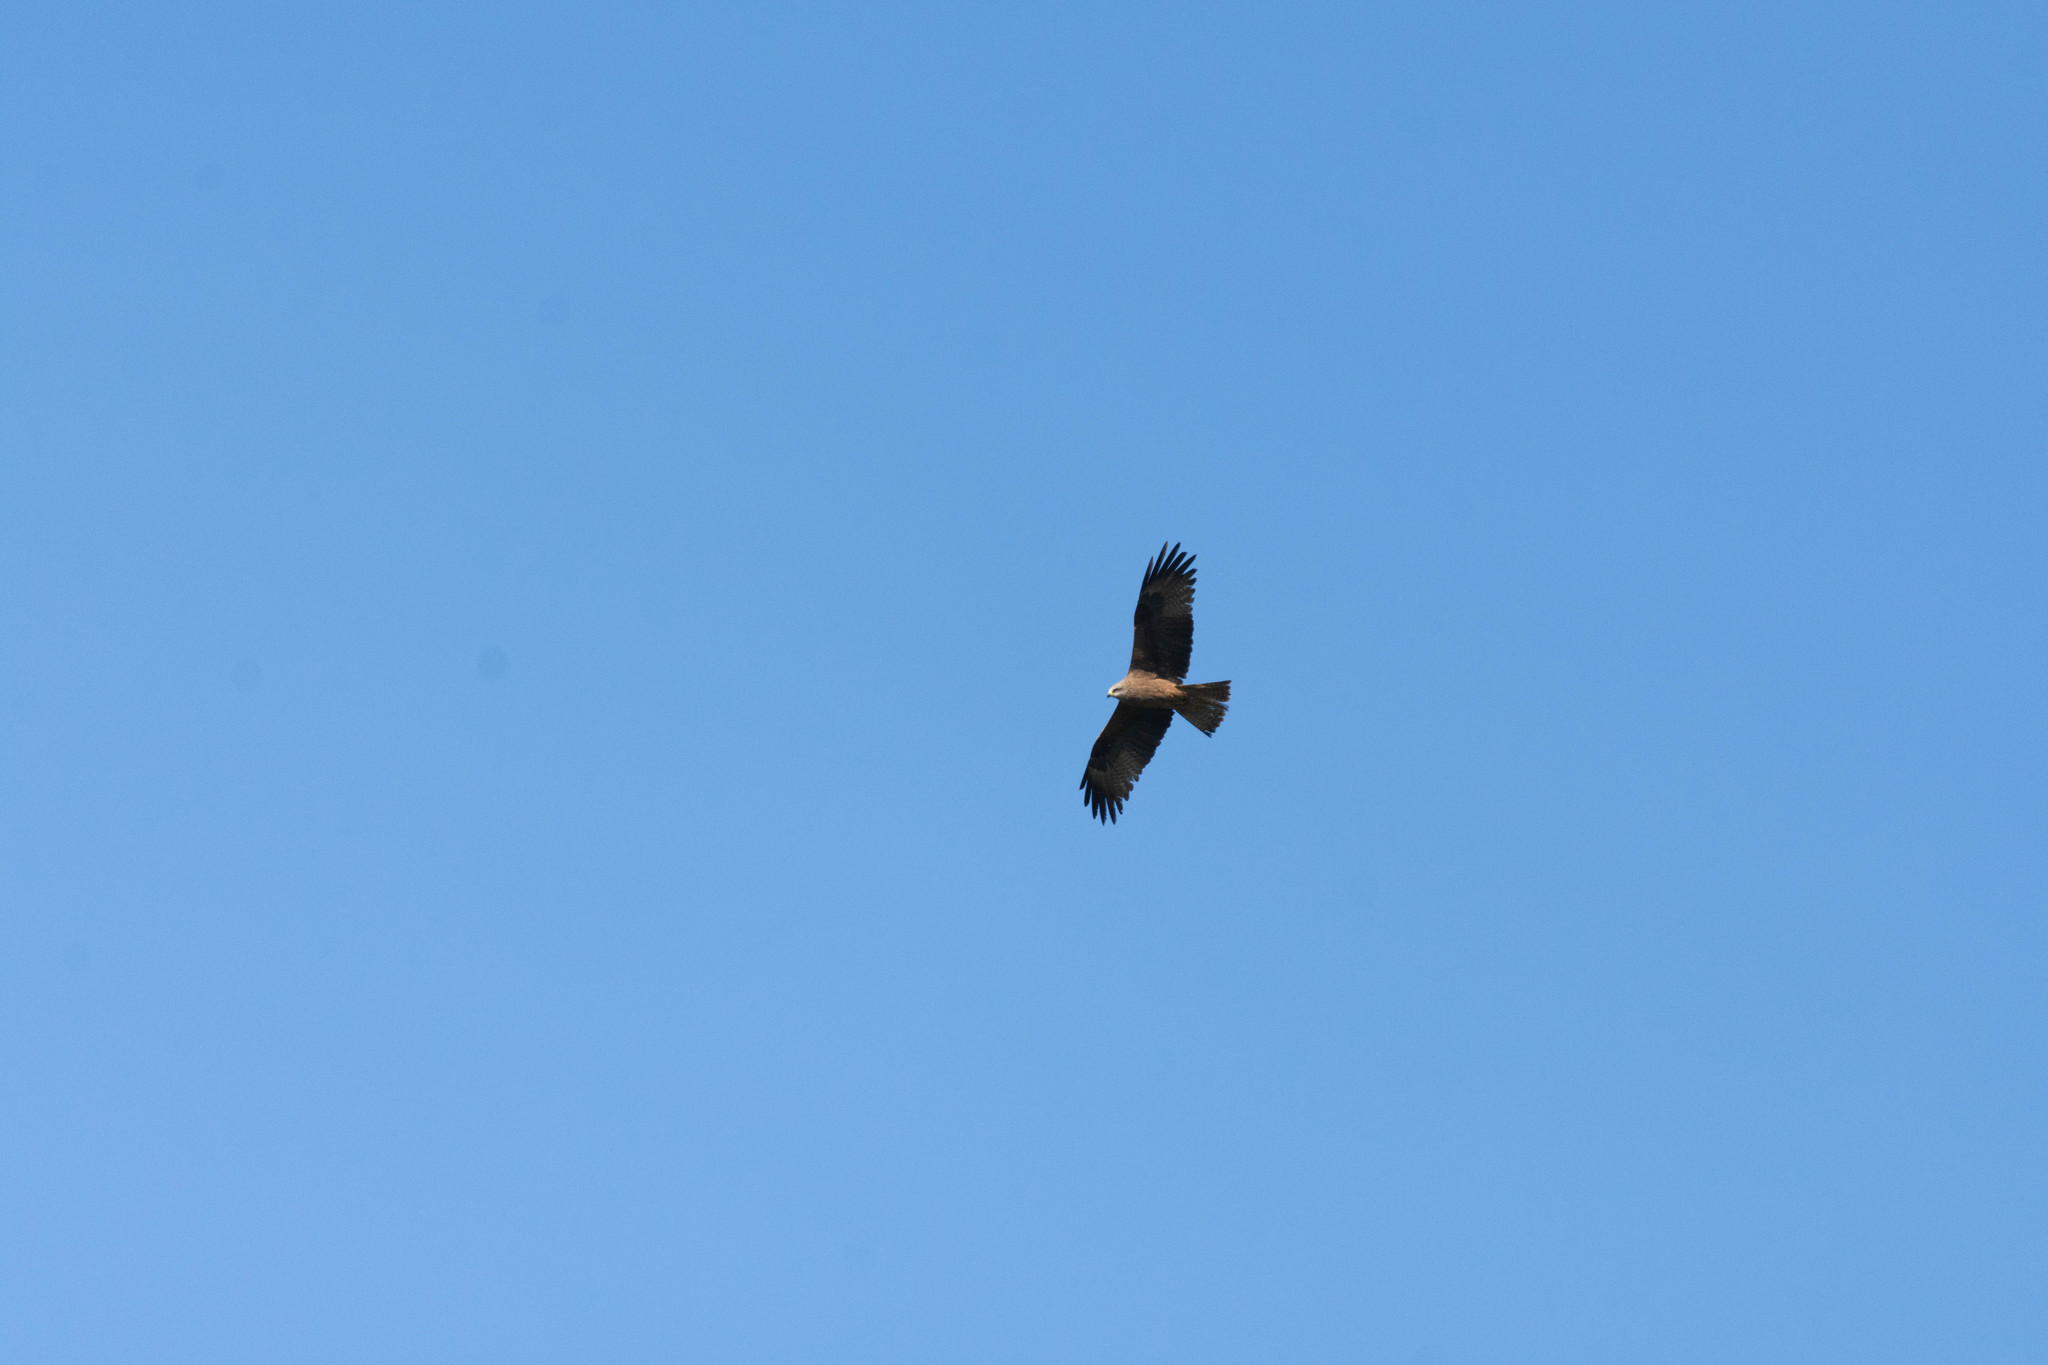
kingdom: Animalia
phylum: Chordata
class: Aves
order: Accipitriformes
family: Accipitridae
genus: Milvus
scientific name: Milvus migrans
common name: Black kite
